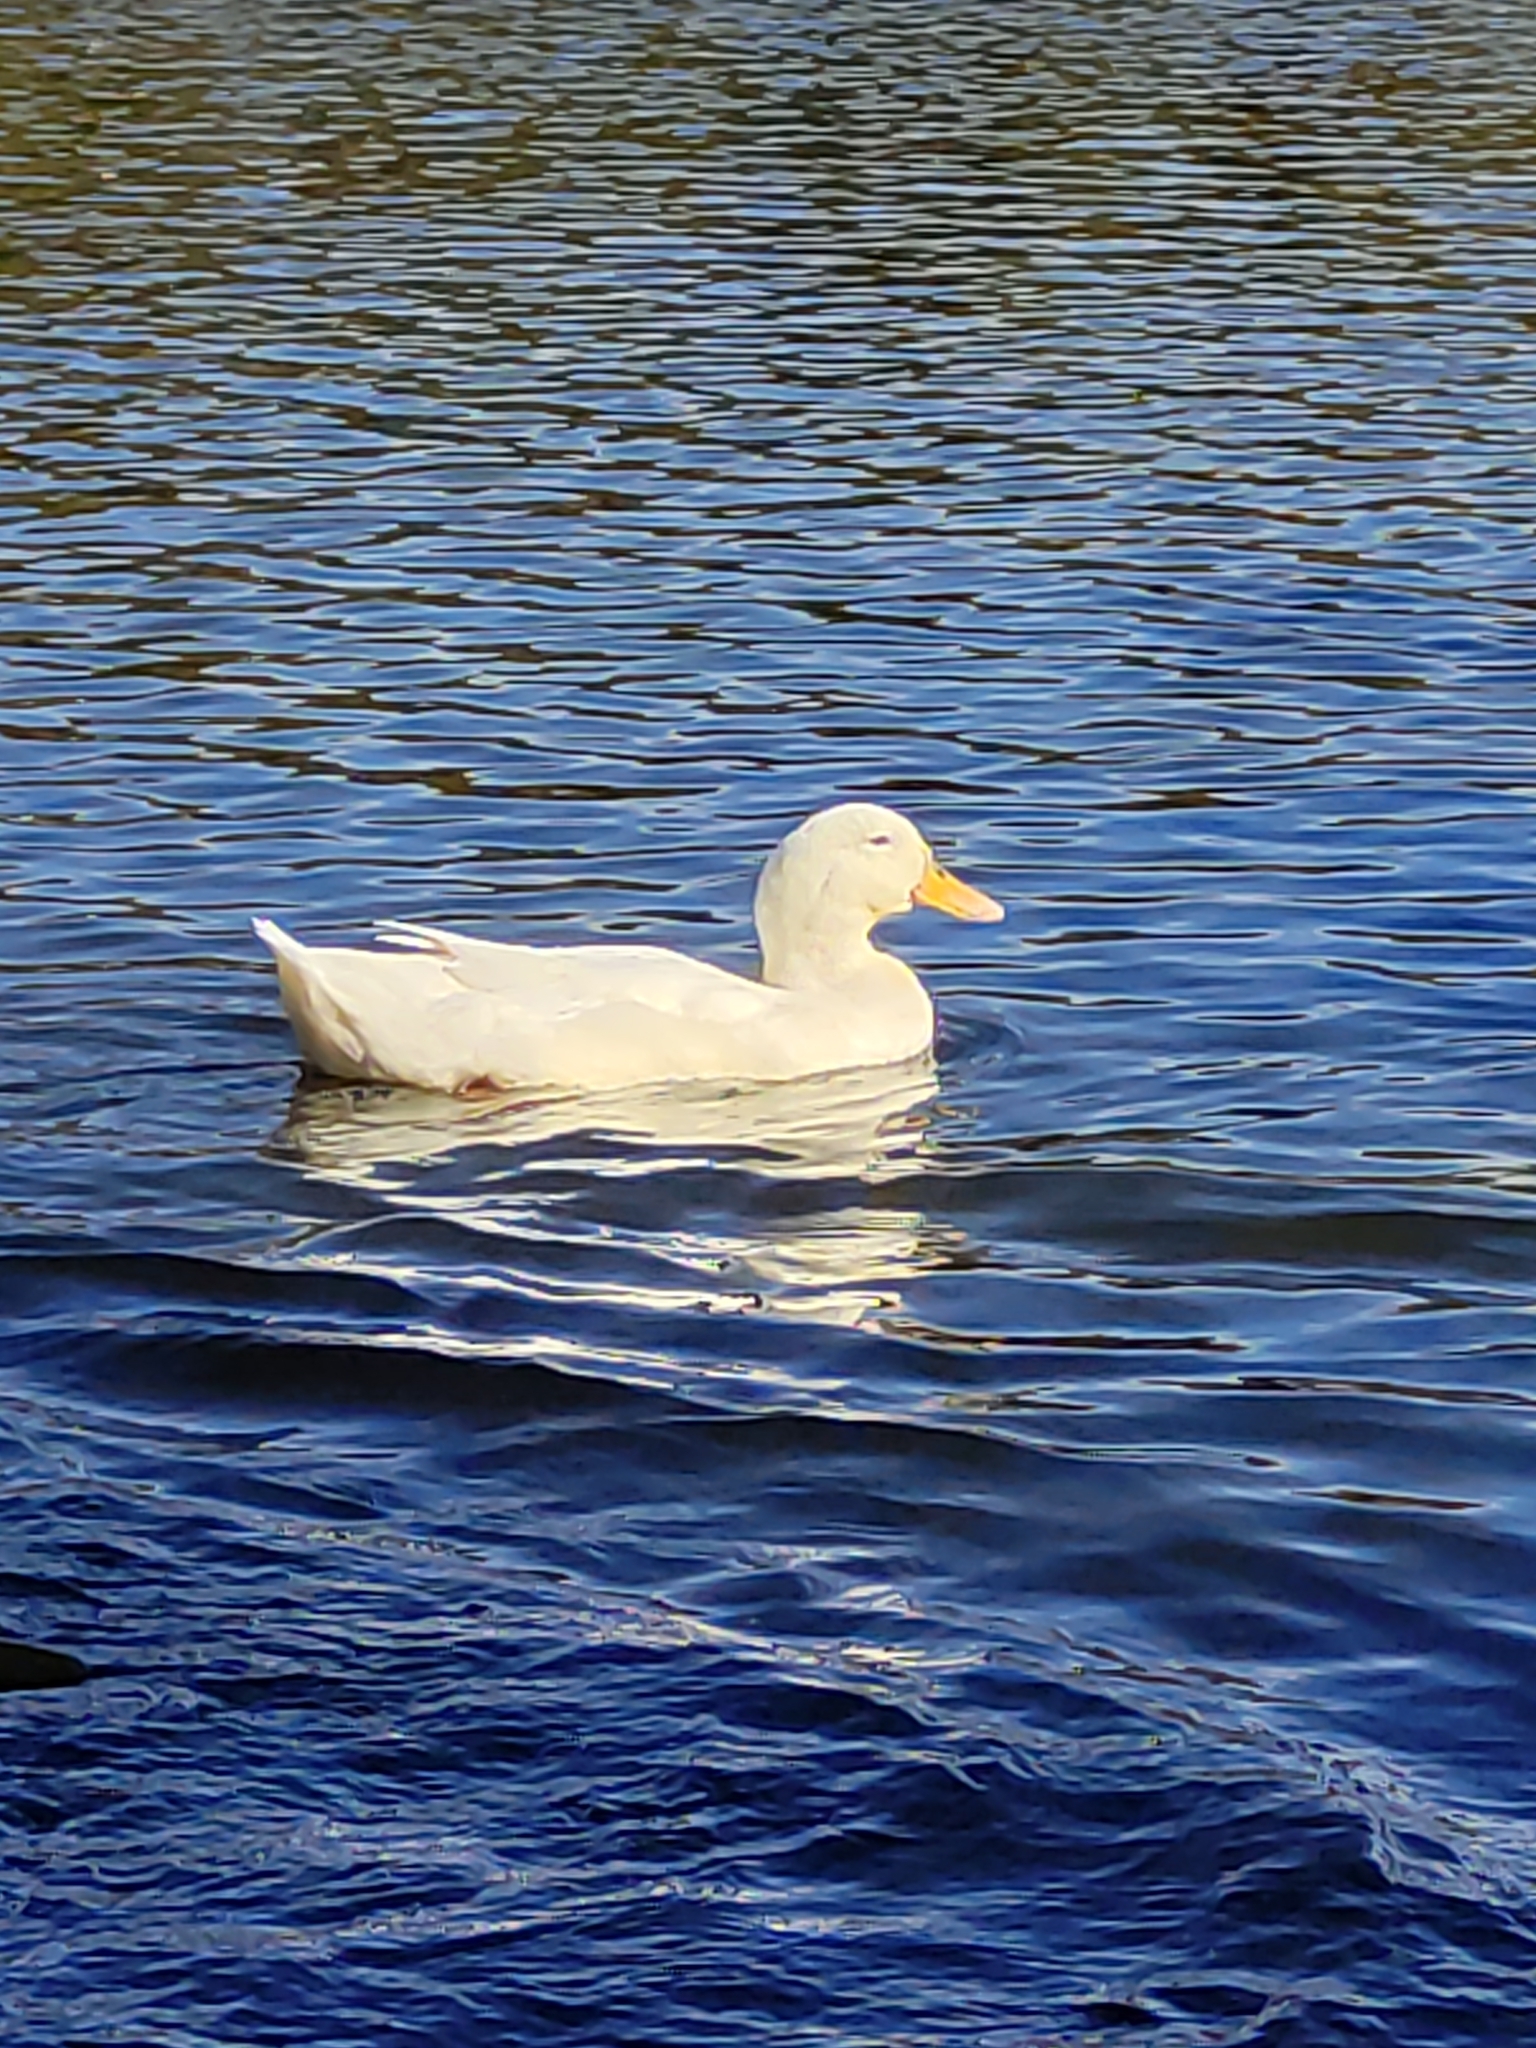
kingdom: Animalia
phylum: Chordata
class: Aves
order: Anseriformes
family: Anatidae
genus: Anas
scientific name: Anas platyrhynchos
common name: Mallard
